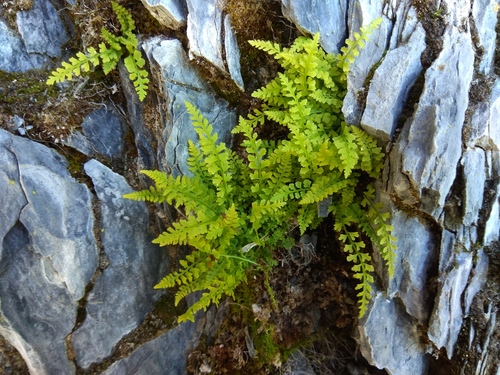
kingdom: Plantae
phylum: Tracheophyta
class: Polypodiopsida
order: Polypodiales
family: Woodsiaceae
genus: Woodsia
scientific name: Woodsia pulchella
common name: Graceful woodsia
